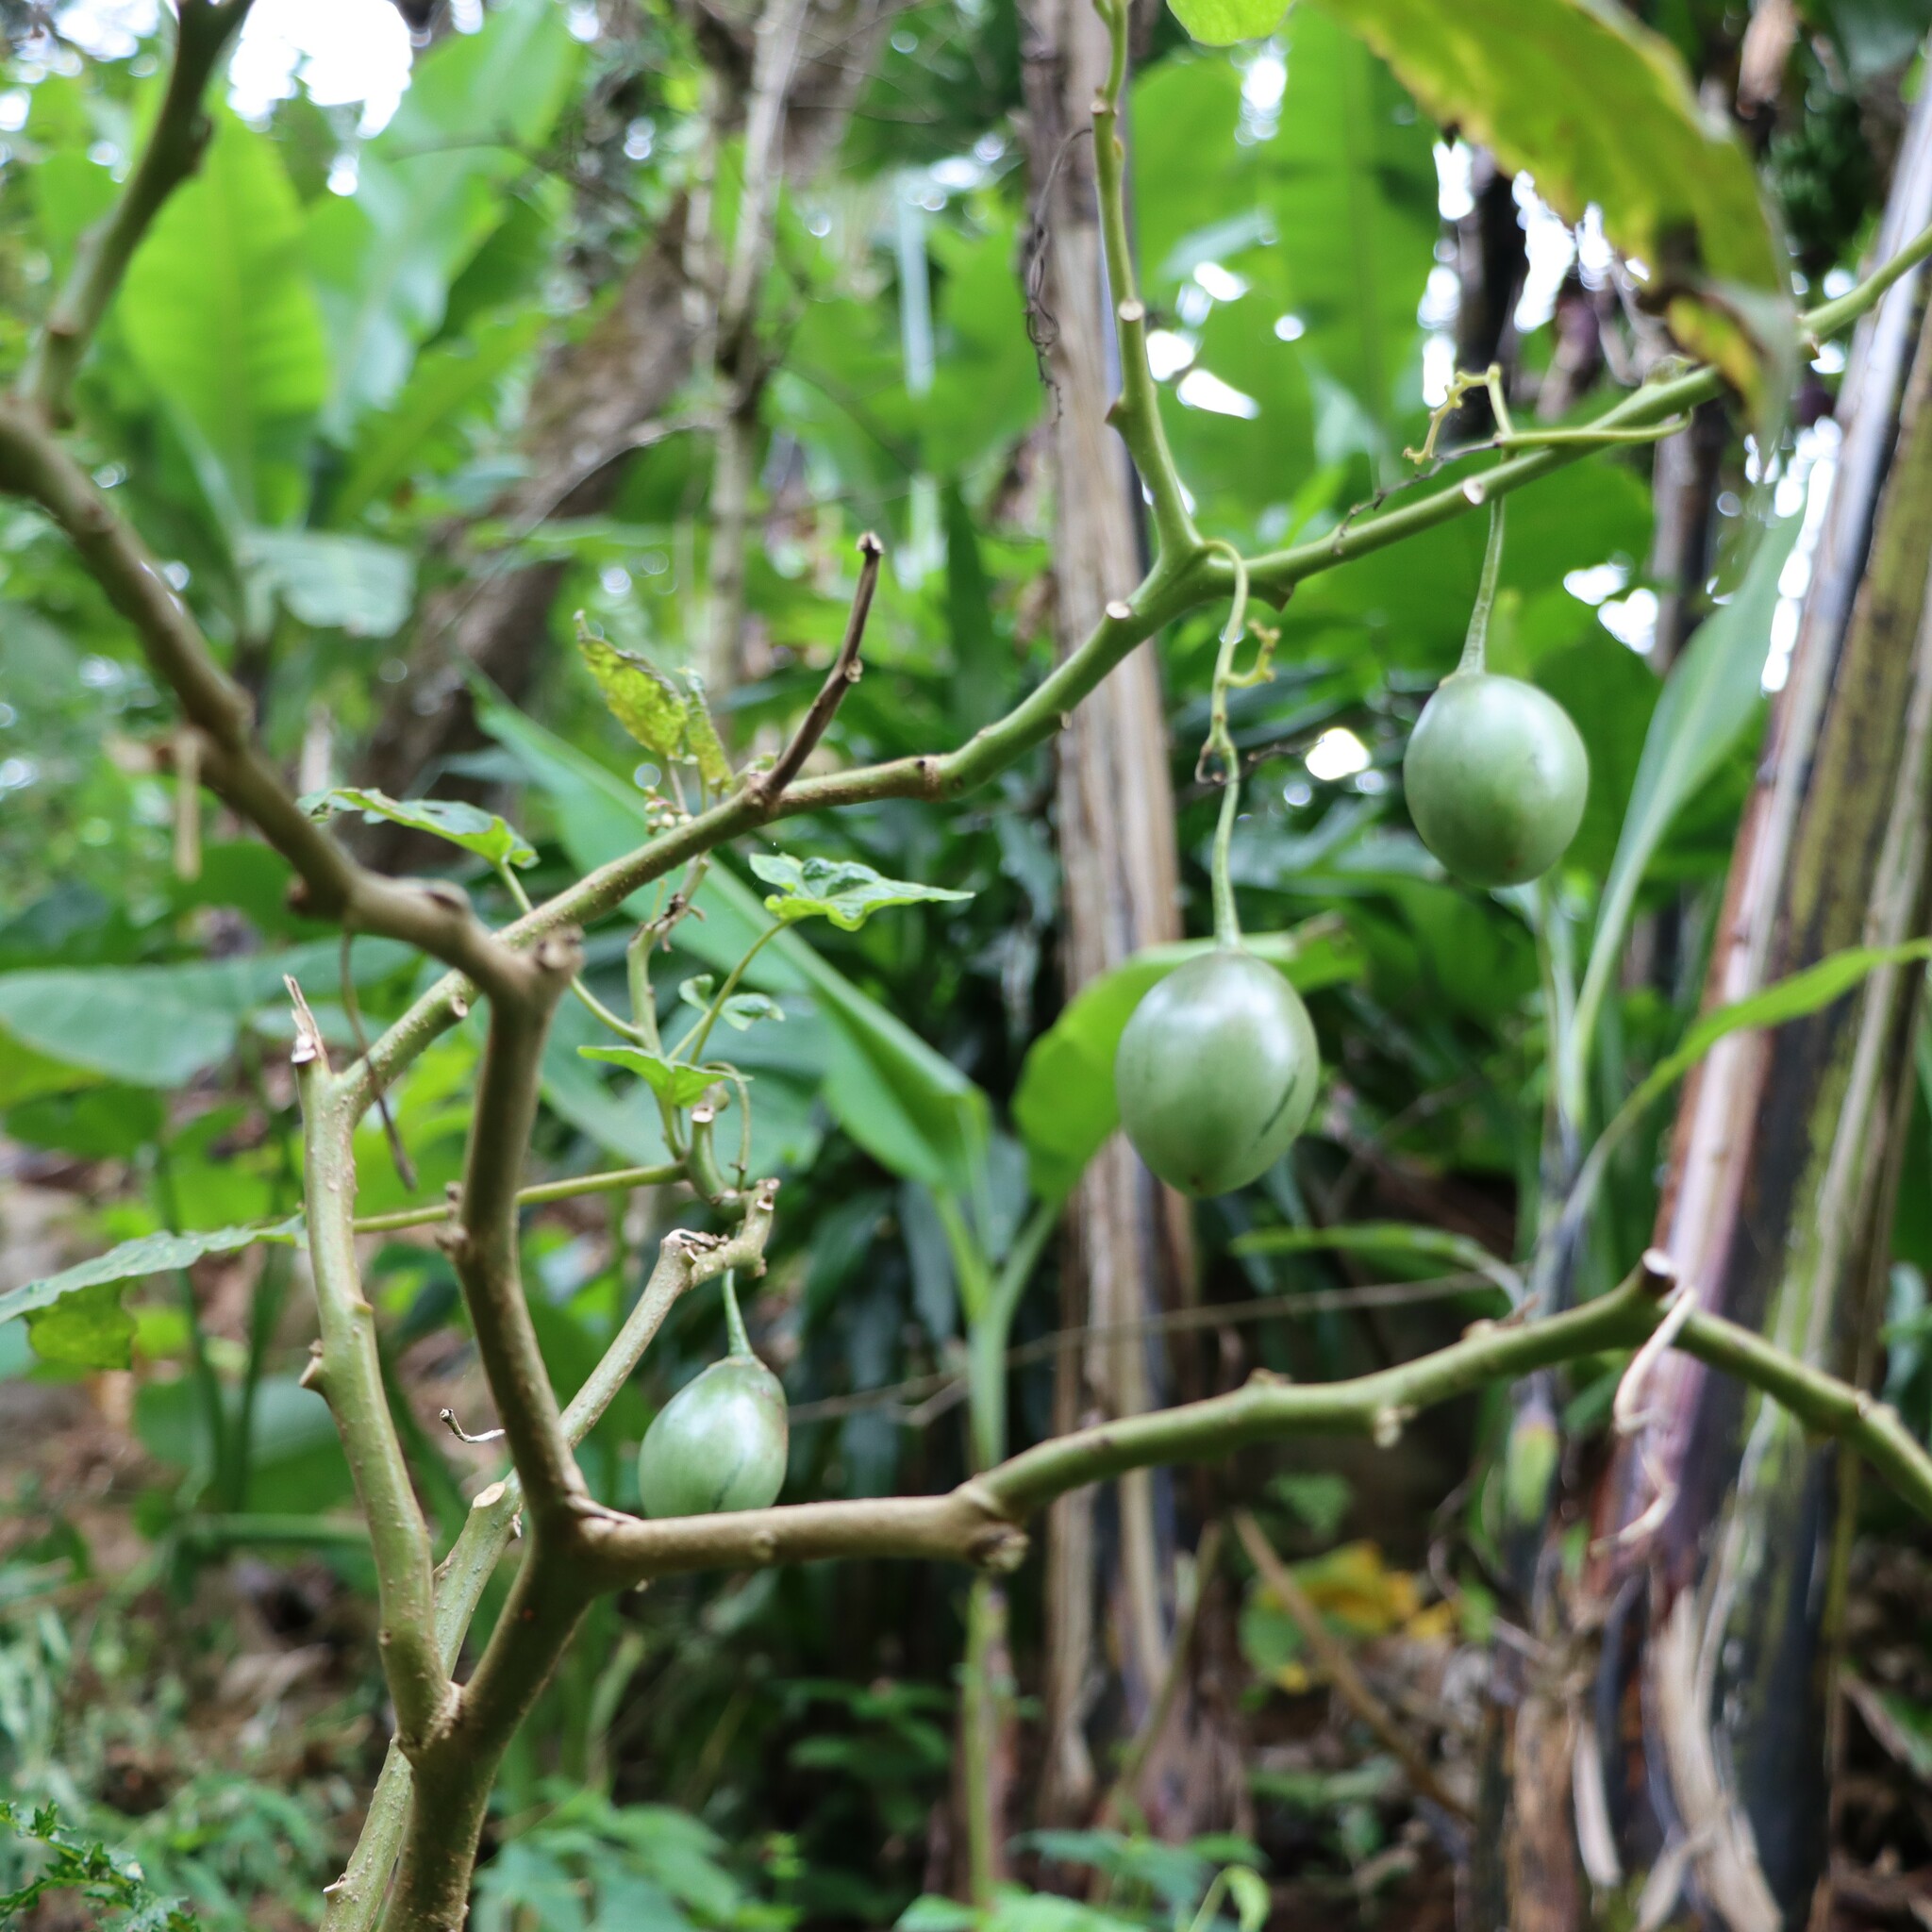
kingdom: Plantae
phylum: Tracheophyta
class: Magnoliopsida
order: Solanales
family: Solanaceae
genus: Solanum
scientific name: Solanum betaceum
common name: Tamarillo
